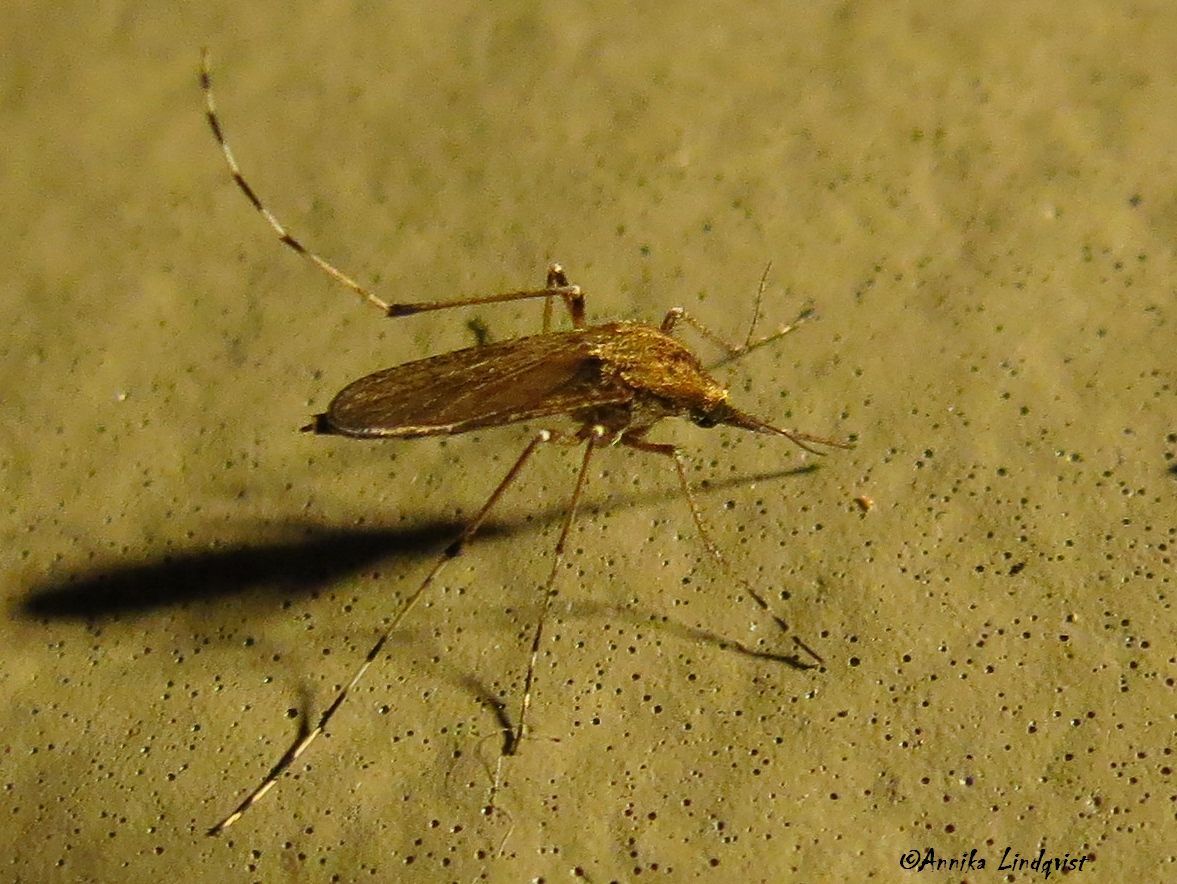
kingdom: Animalia
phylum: Arthropoda
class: Insecta
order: Diptera
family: Culicidae
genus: Aedes
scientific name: Aedes sollicitans
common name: Saltmarsh mosquito
